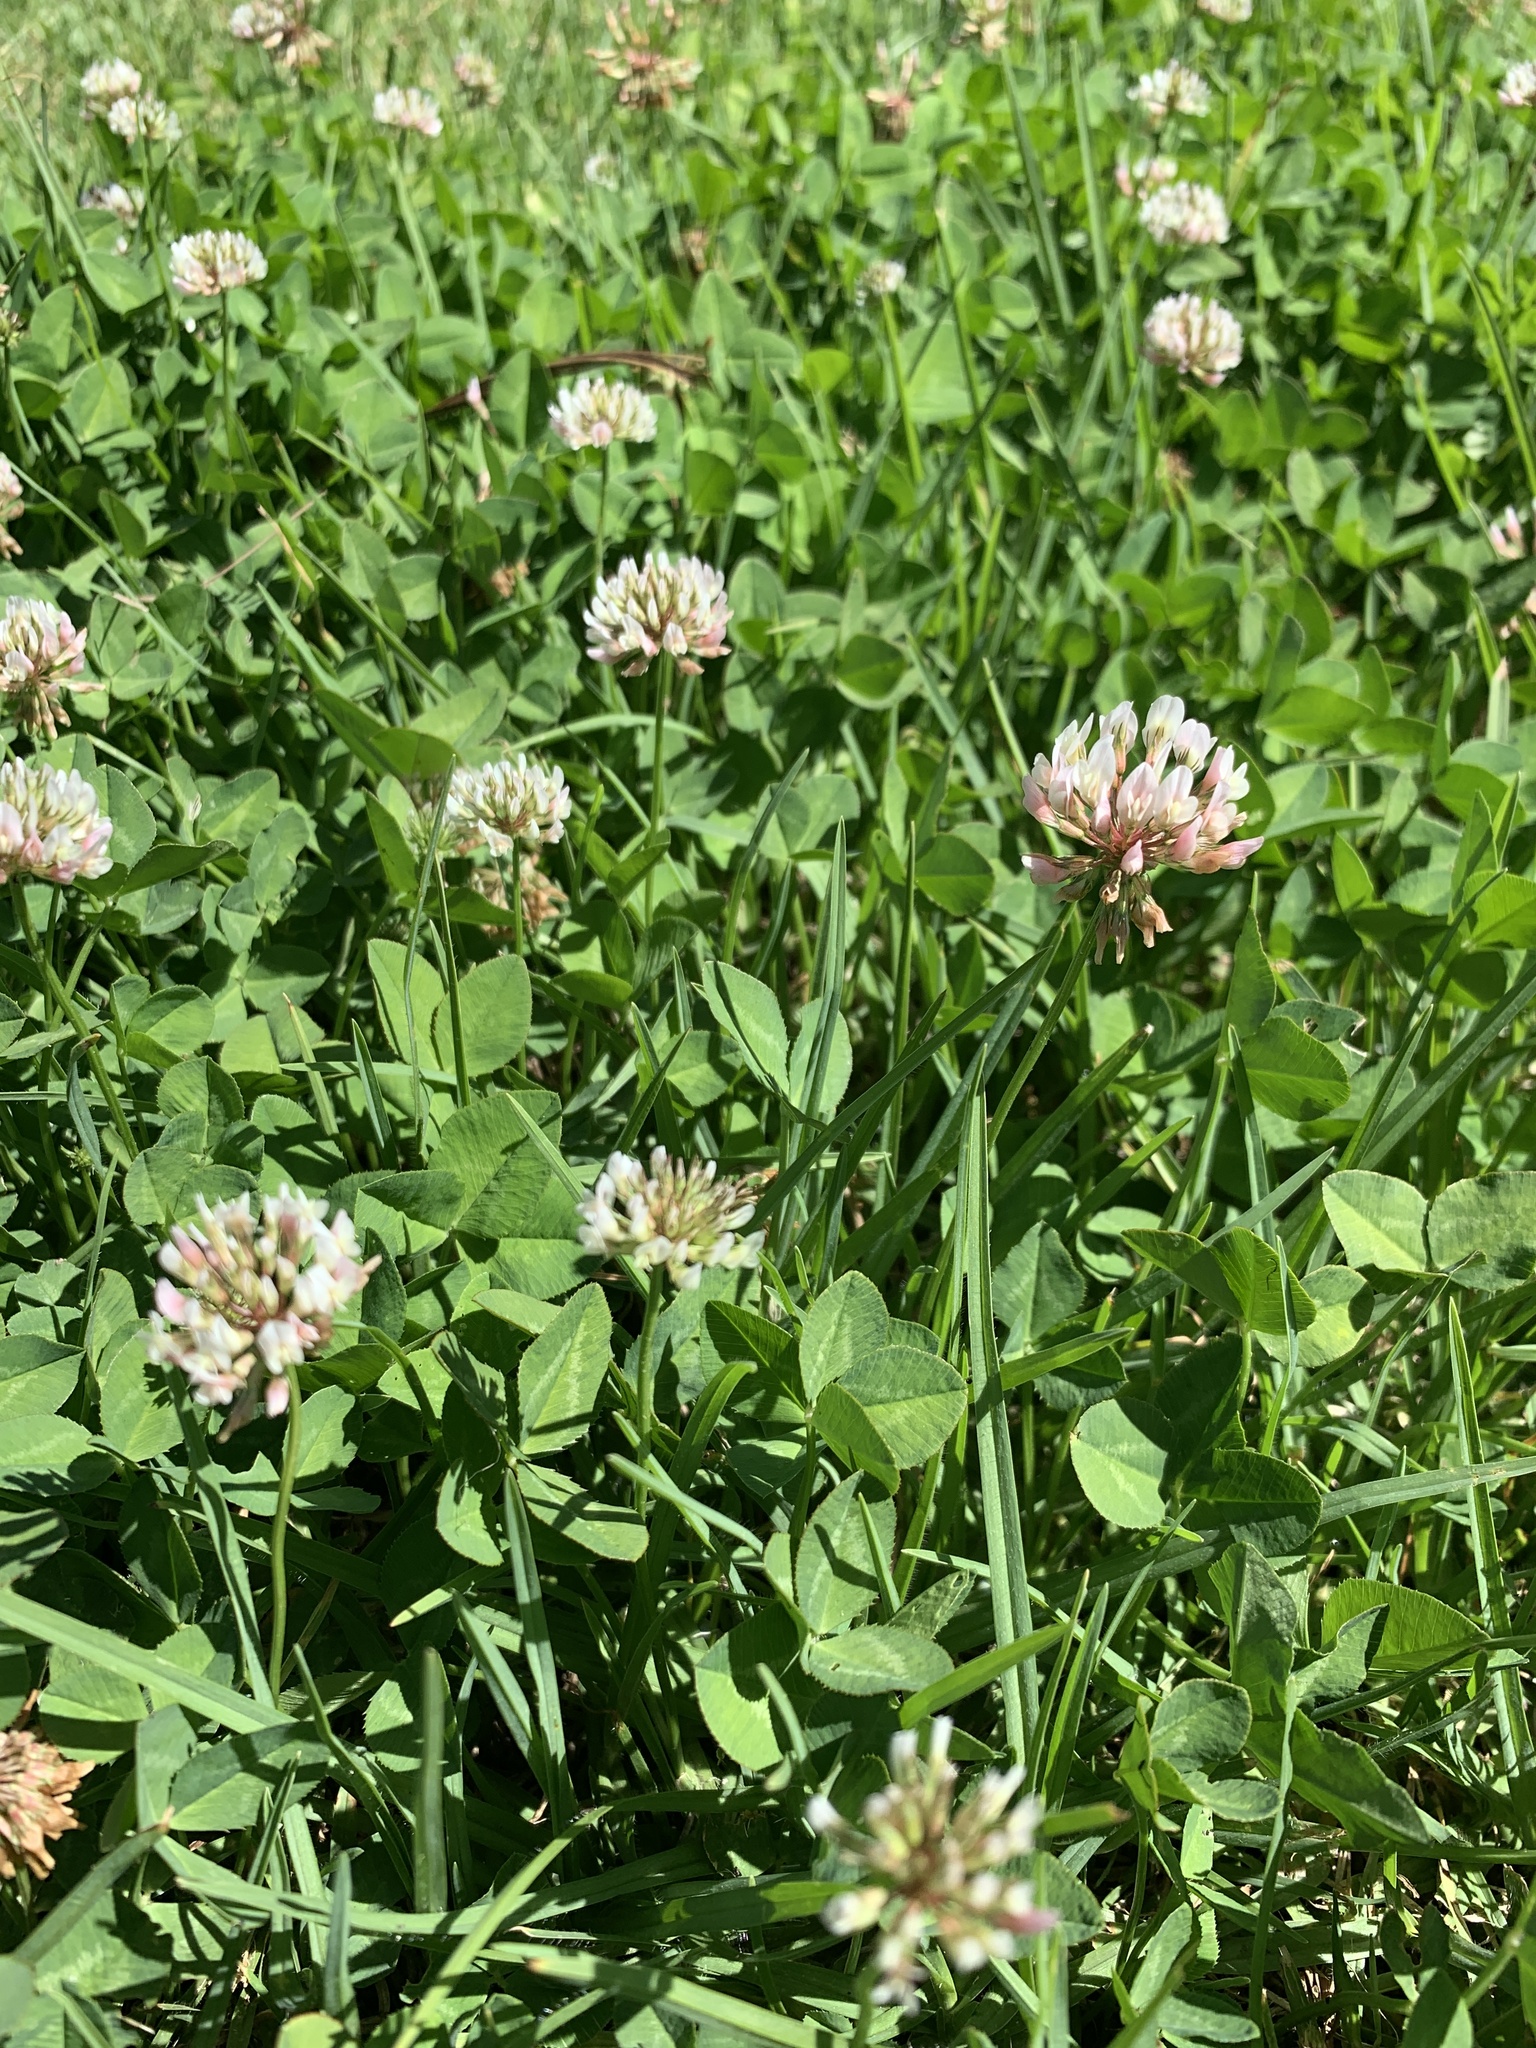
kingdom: Plantae
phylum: Tracheophyta
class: Magnoliopsida
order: Fabales
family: Fabaceae
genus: Trifolium
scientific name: Trifolium repens
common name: White clover
